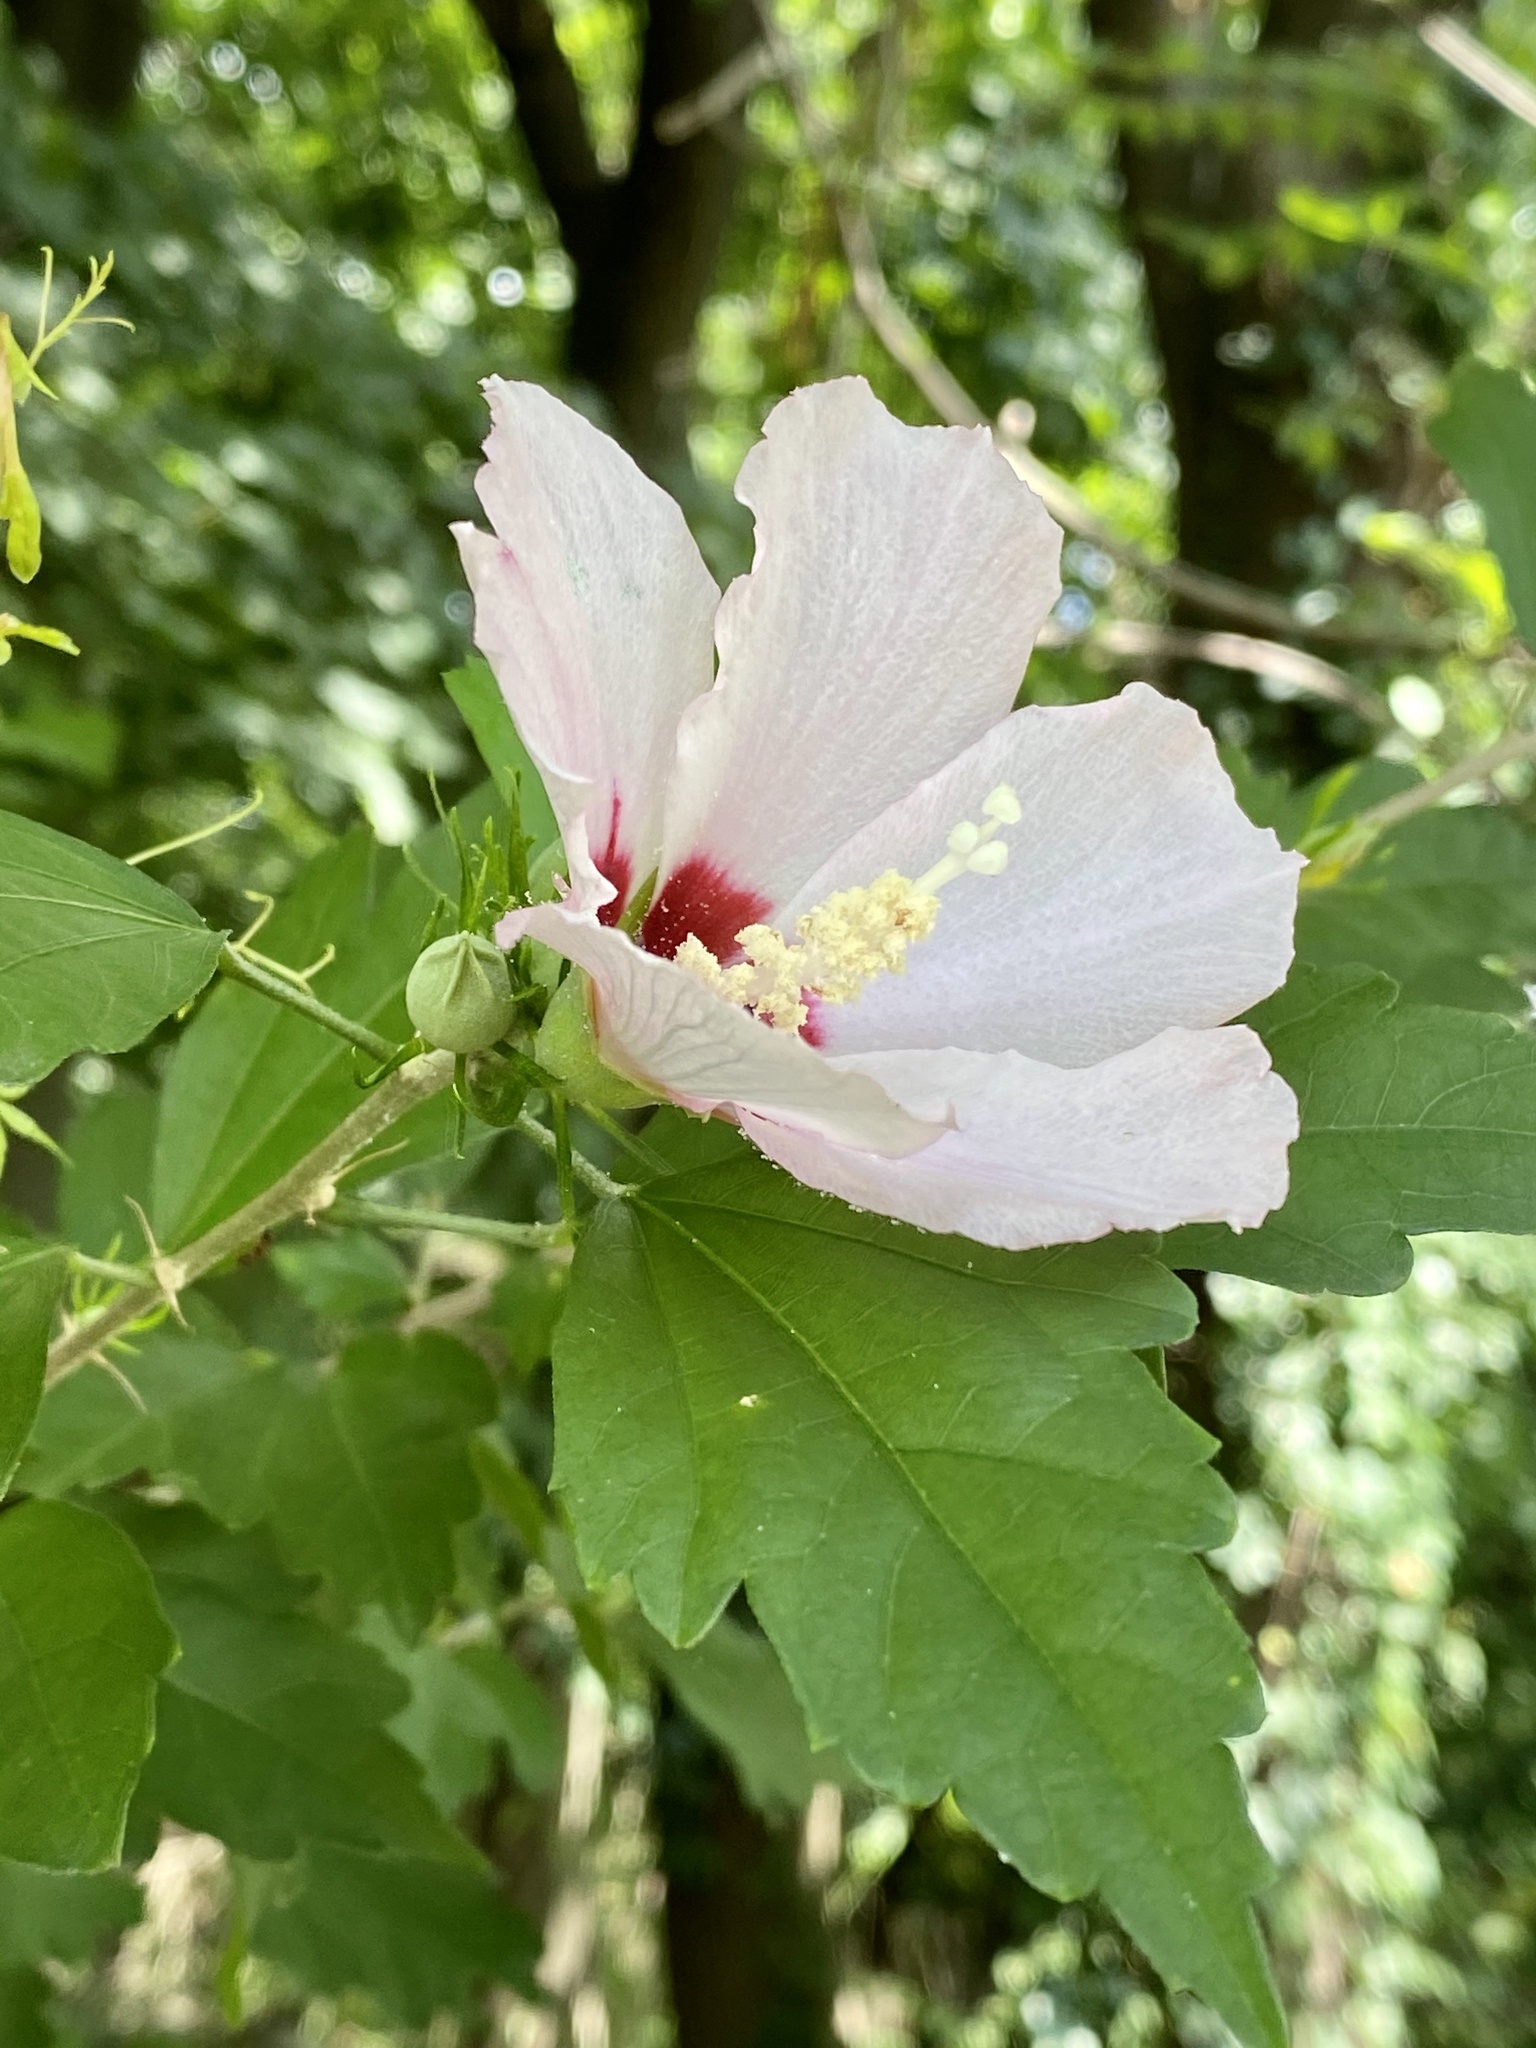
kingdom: Plantae
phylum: Tracheophyta
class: Magnoliopsida
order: Malvales
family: Malvaceae
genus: Hibiscus
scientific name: Hibiscus syriacus
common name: Syrian ketmia
